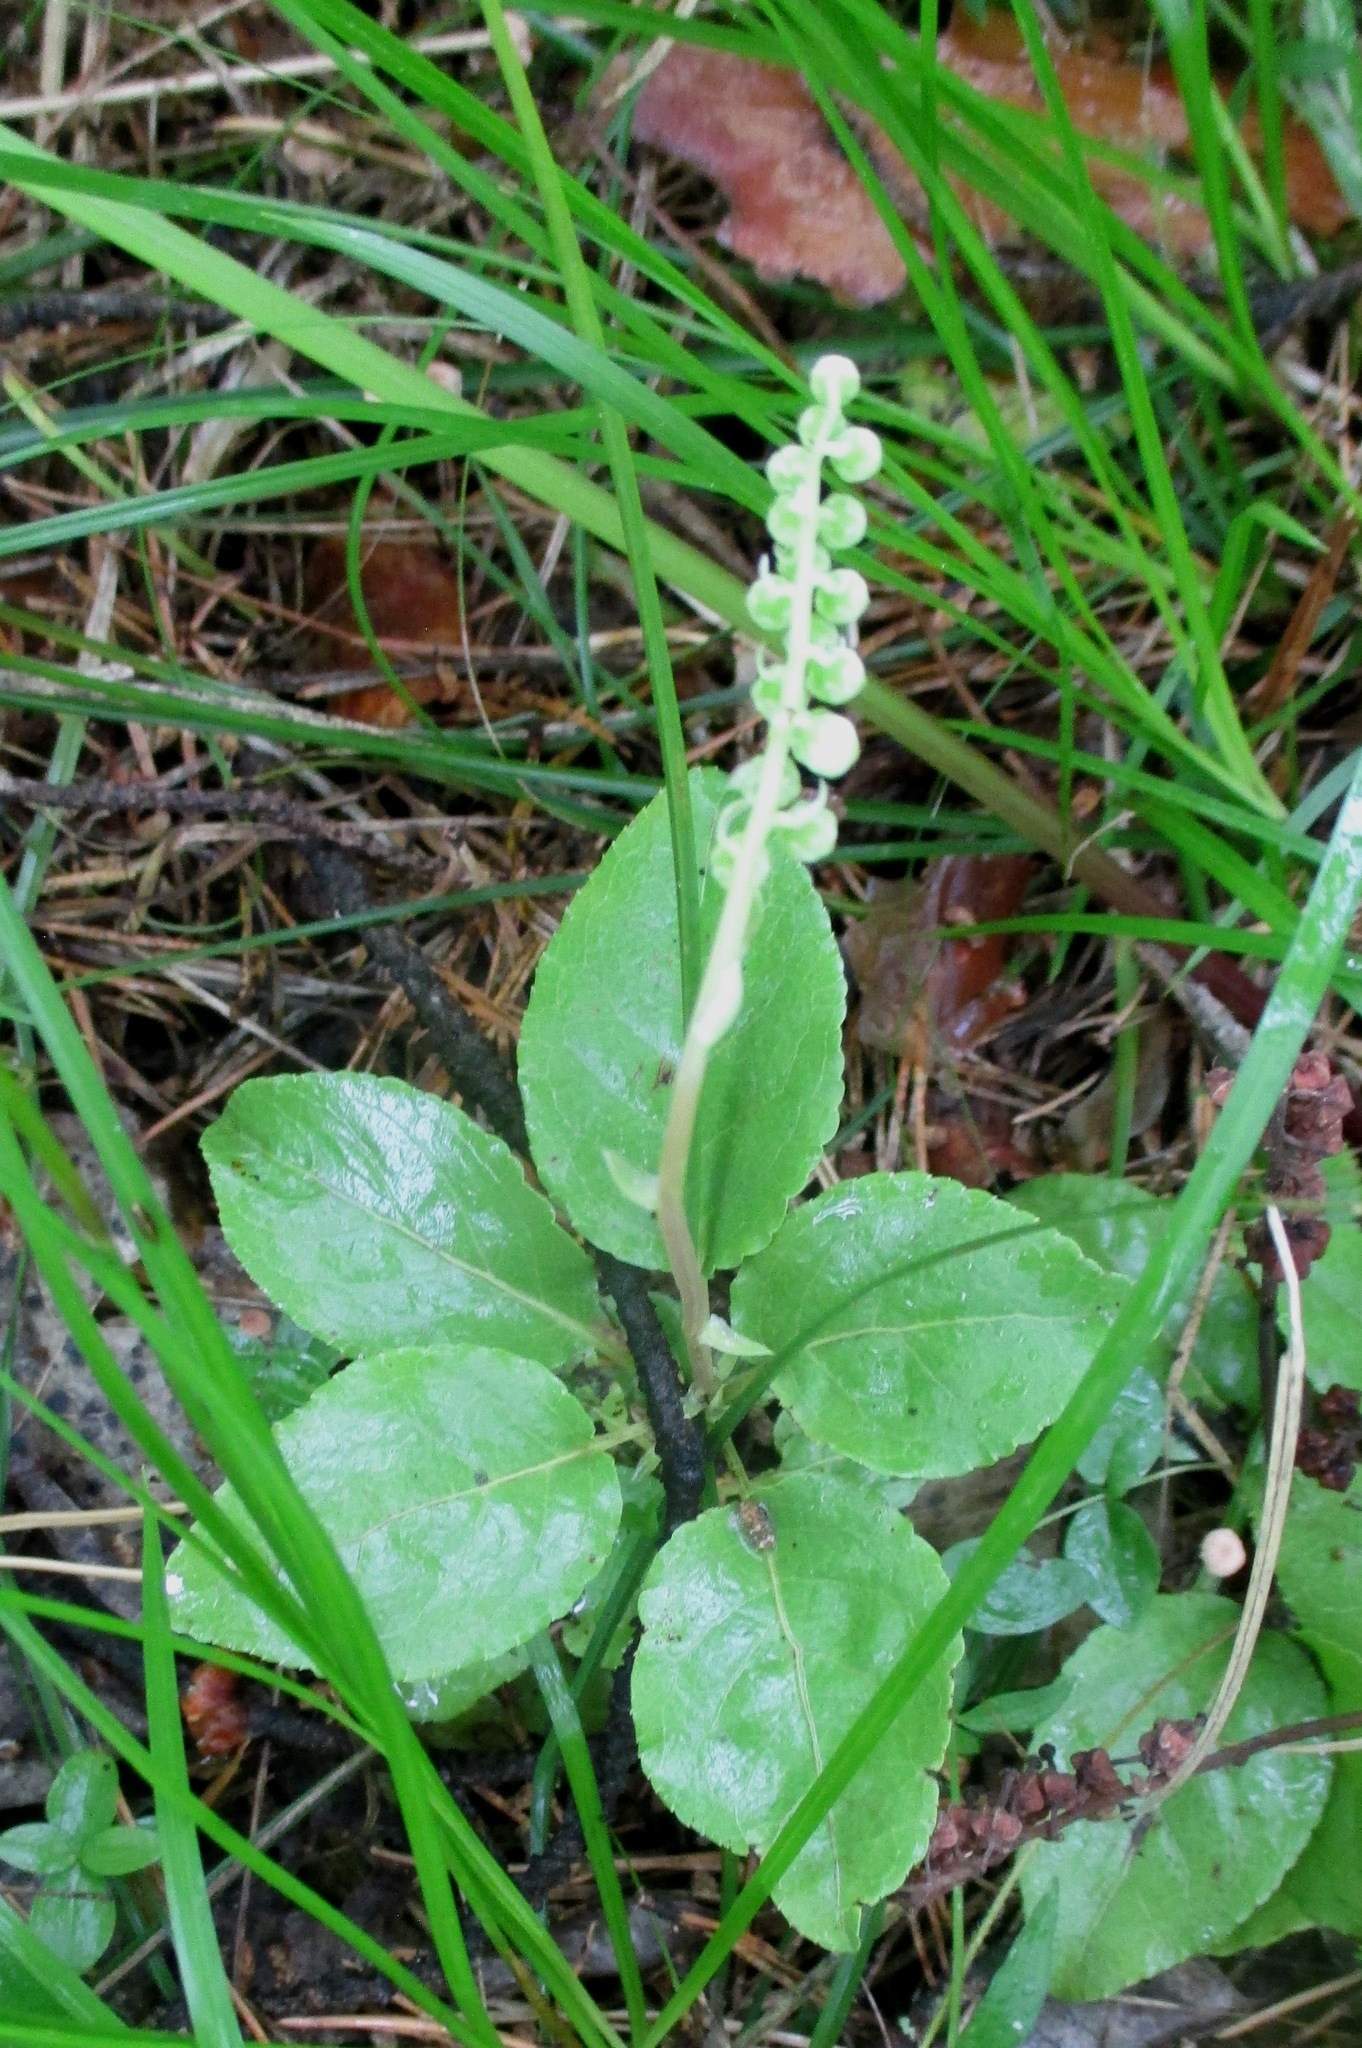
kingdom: Plantae
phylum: Tracheophyta
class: Magnoliopsida
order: Ericales
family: Ericaceae
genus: Orthilia
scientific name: Orthilia secunda
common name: One-sided orthilia
